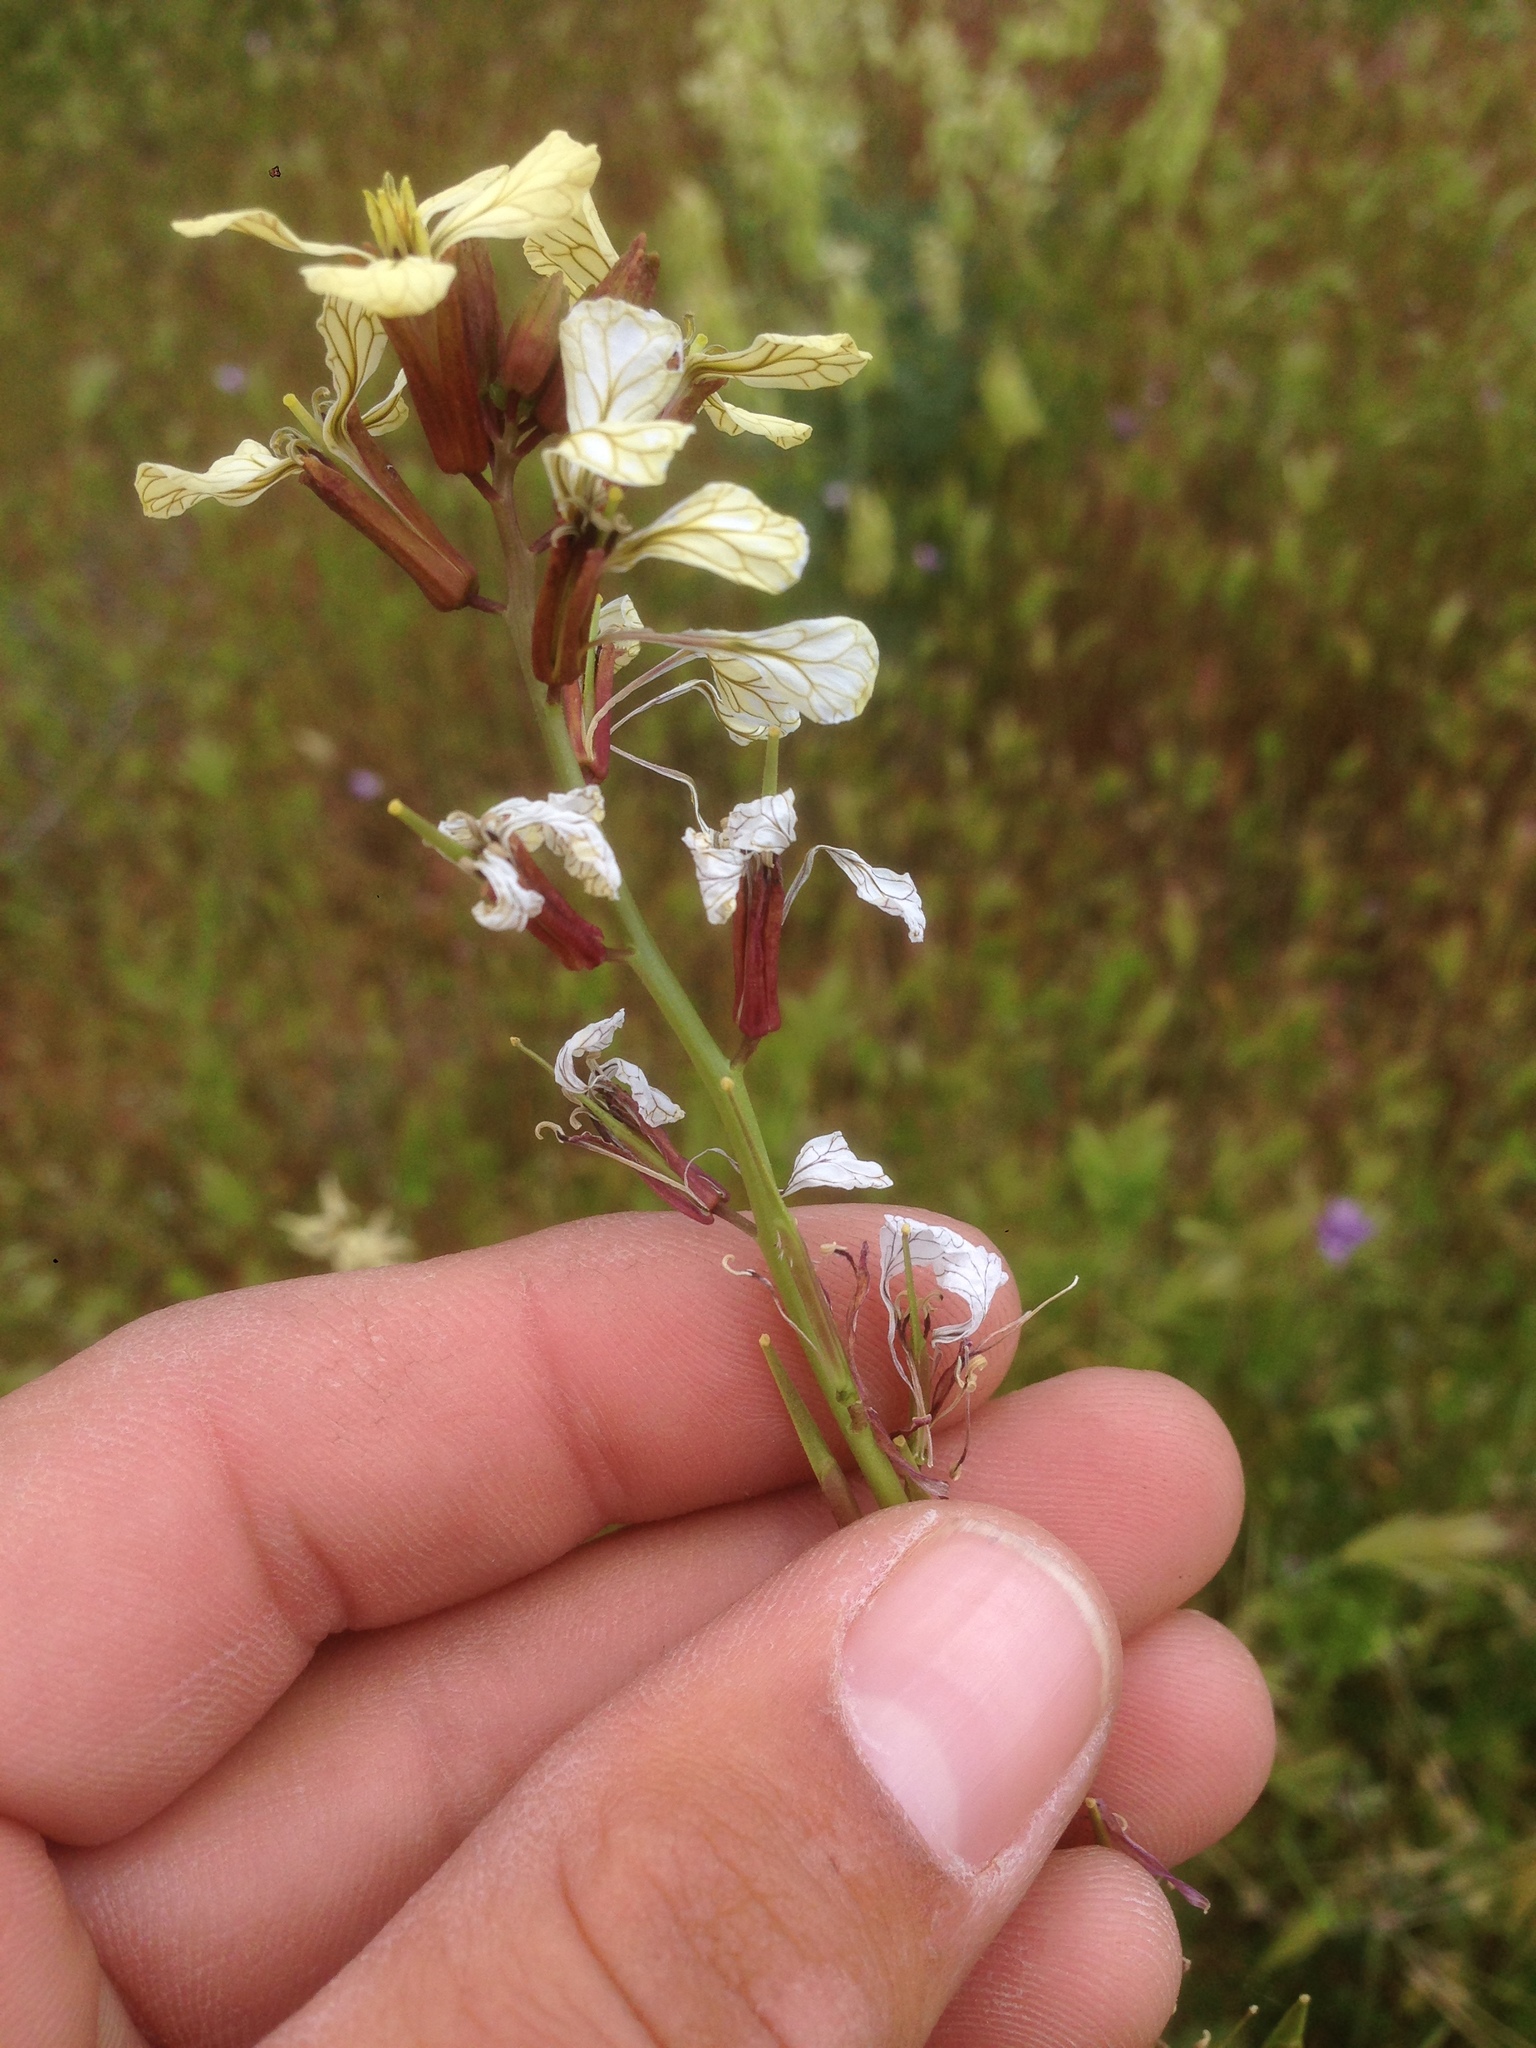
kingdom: Plantae
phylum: Tracheophyta
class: Magnoliopsida
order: Brassicales
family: Brassicaceae
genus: Eruca
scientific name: Eruca vesicaria
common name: Garden rocket
